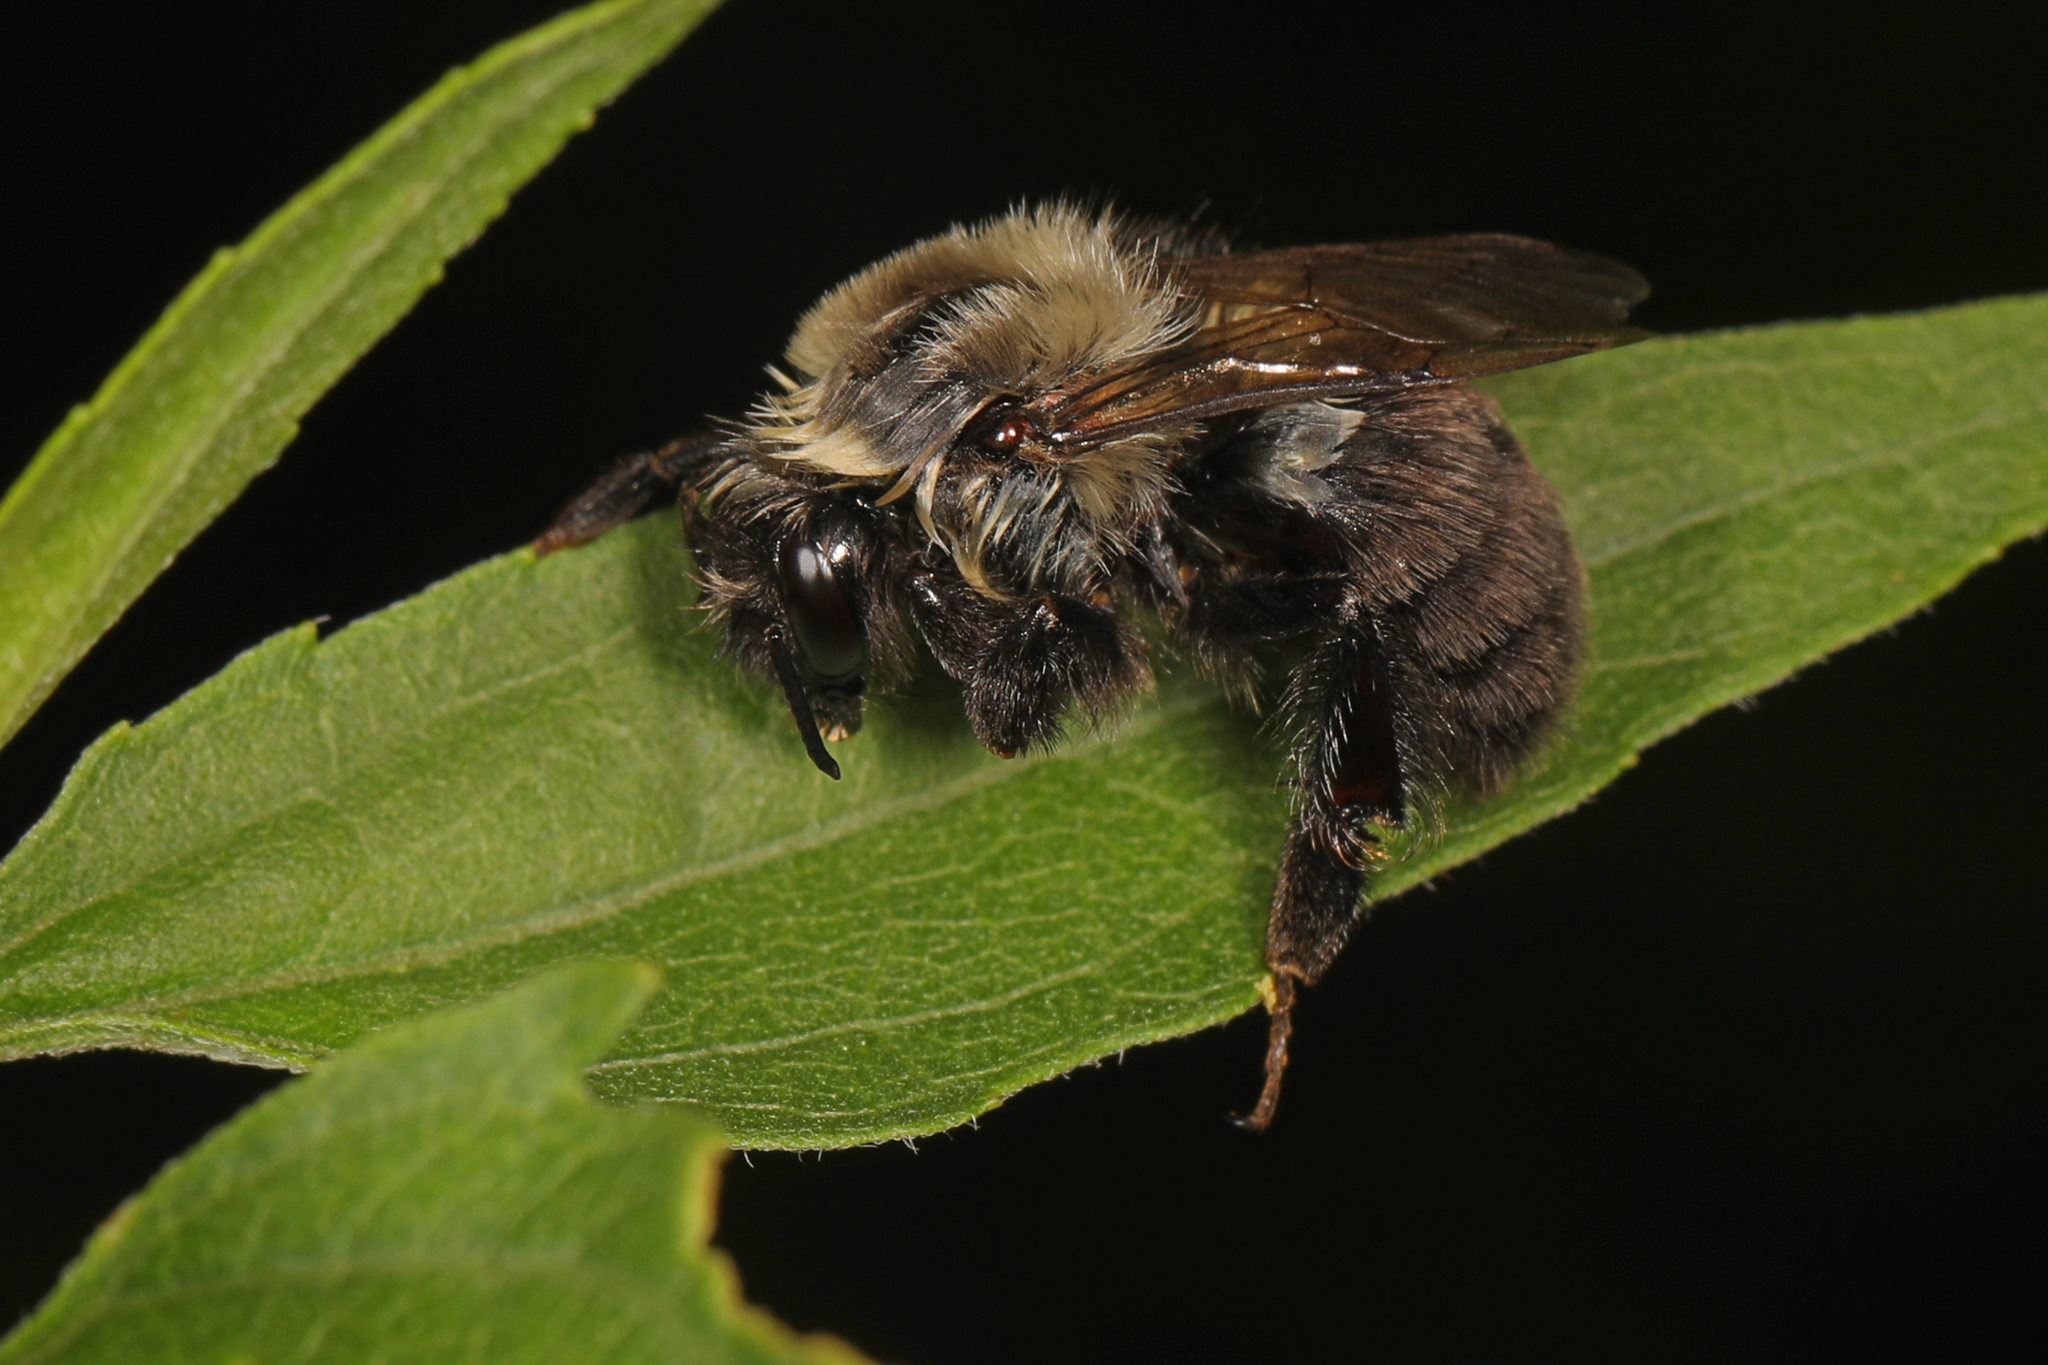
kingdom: Animalia
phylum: Arthropoda
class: Insecta
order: Hymenoptera
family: Apidae
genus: Bombus
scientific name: Bombus impatiens
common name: Common eastern bumble bee
